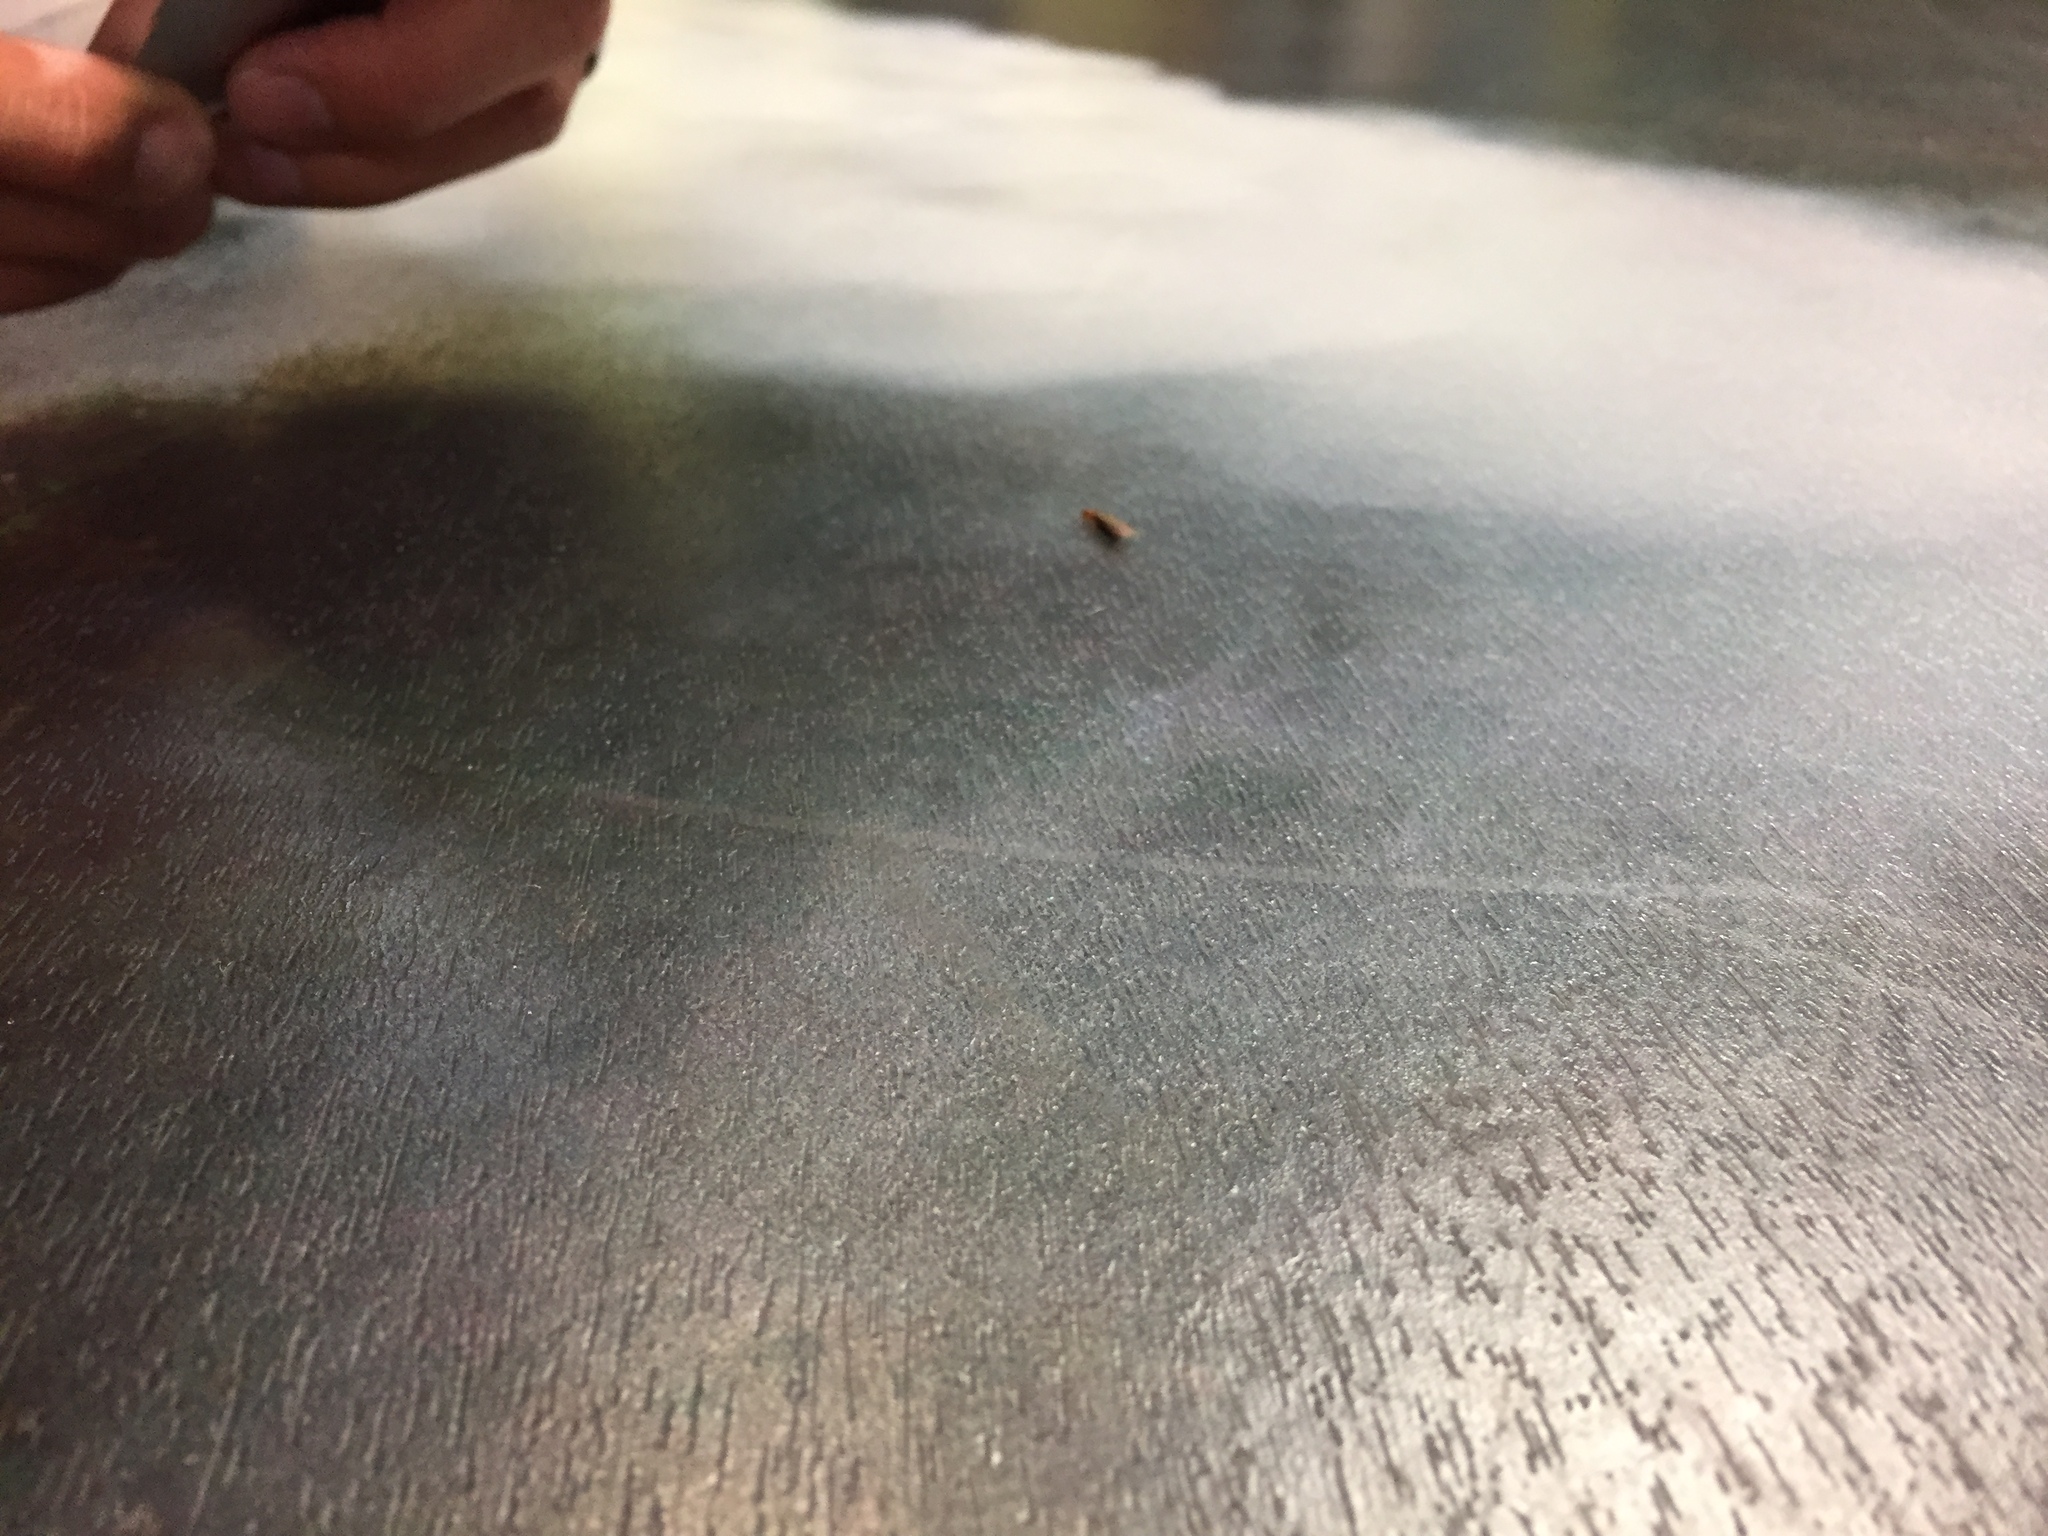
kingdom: Animalia
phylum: Arthropoda
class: Insecta
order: Blattodea
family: Kalotermitidae
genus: Incisitermes
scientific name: Incisitermes minor
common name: Termite
